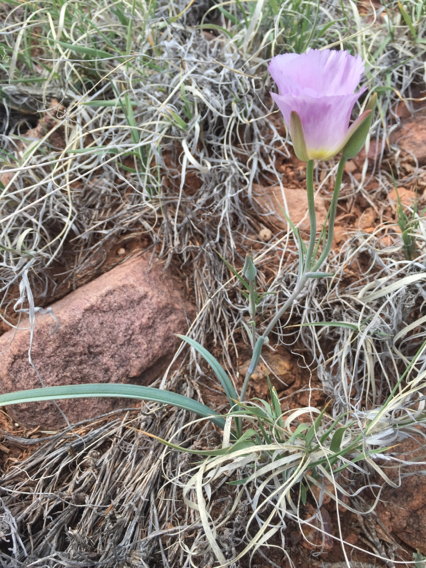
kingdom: Plantae
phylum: Tracheophyta
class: Liliopsida
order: Liliales
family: Liliaceae
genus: Calochortus
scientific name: Calochortus flexuosus
